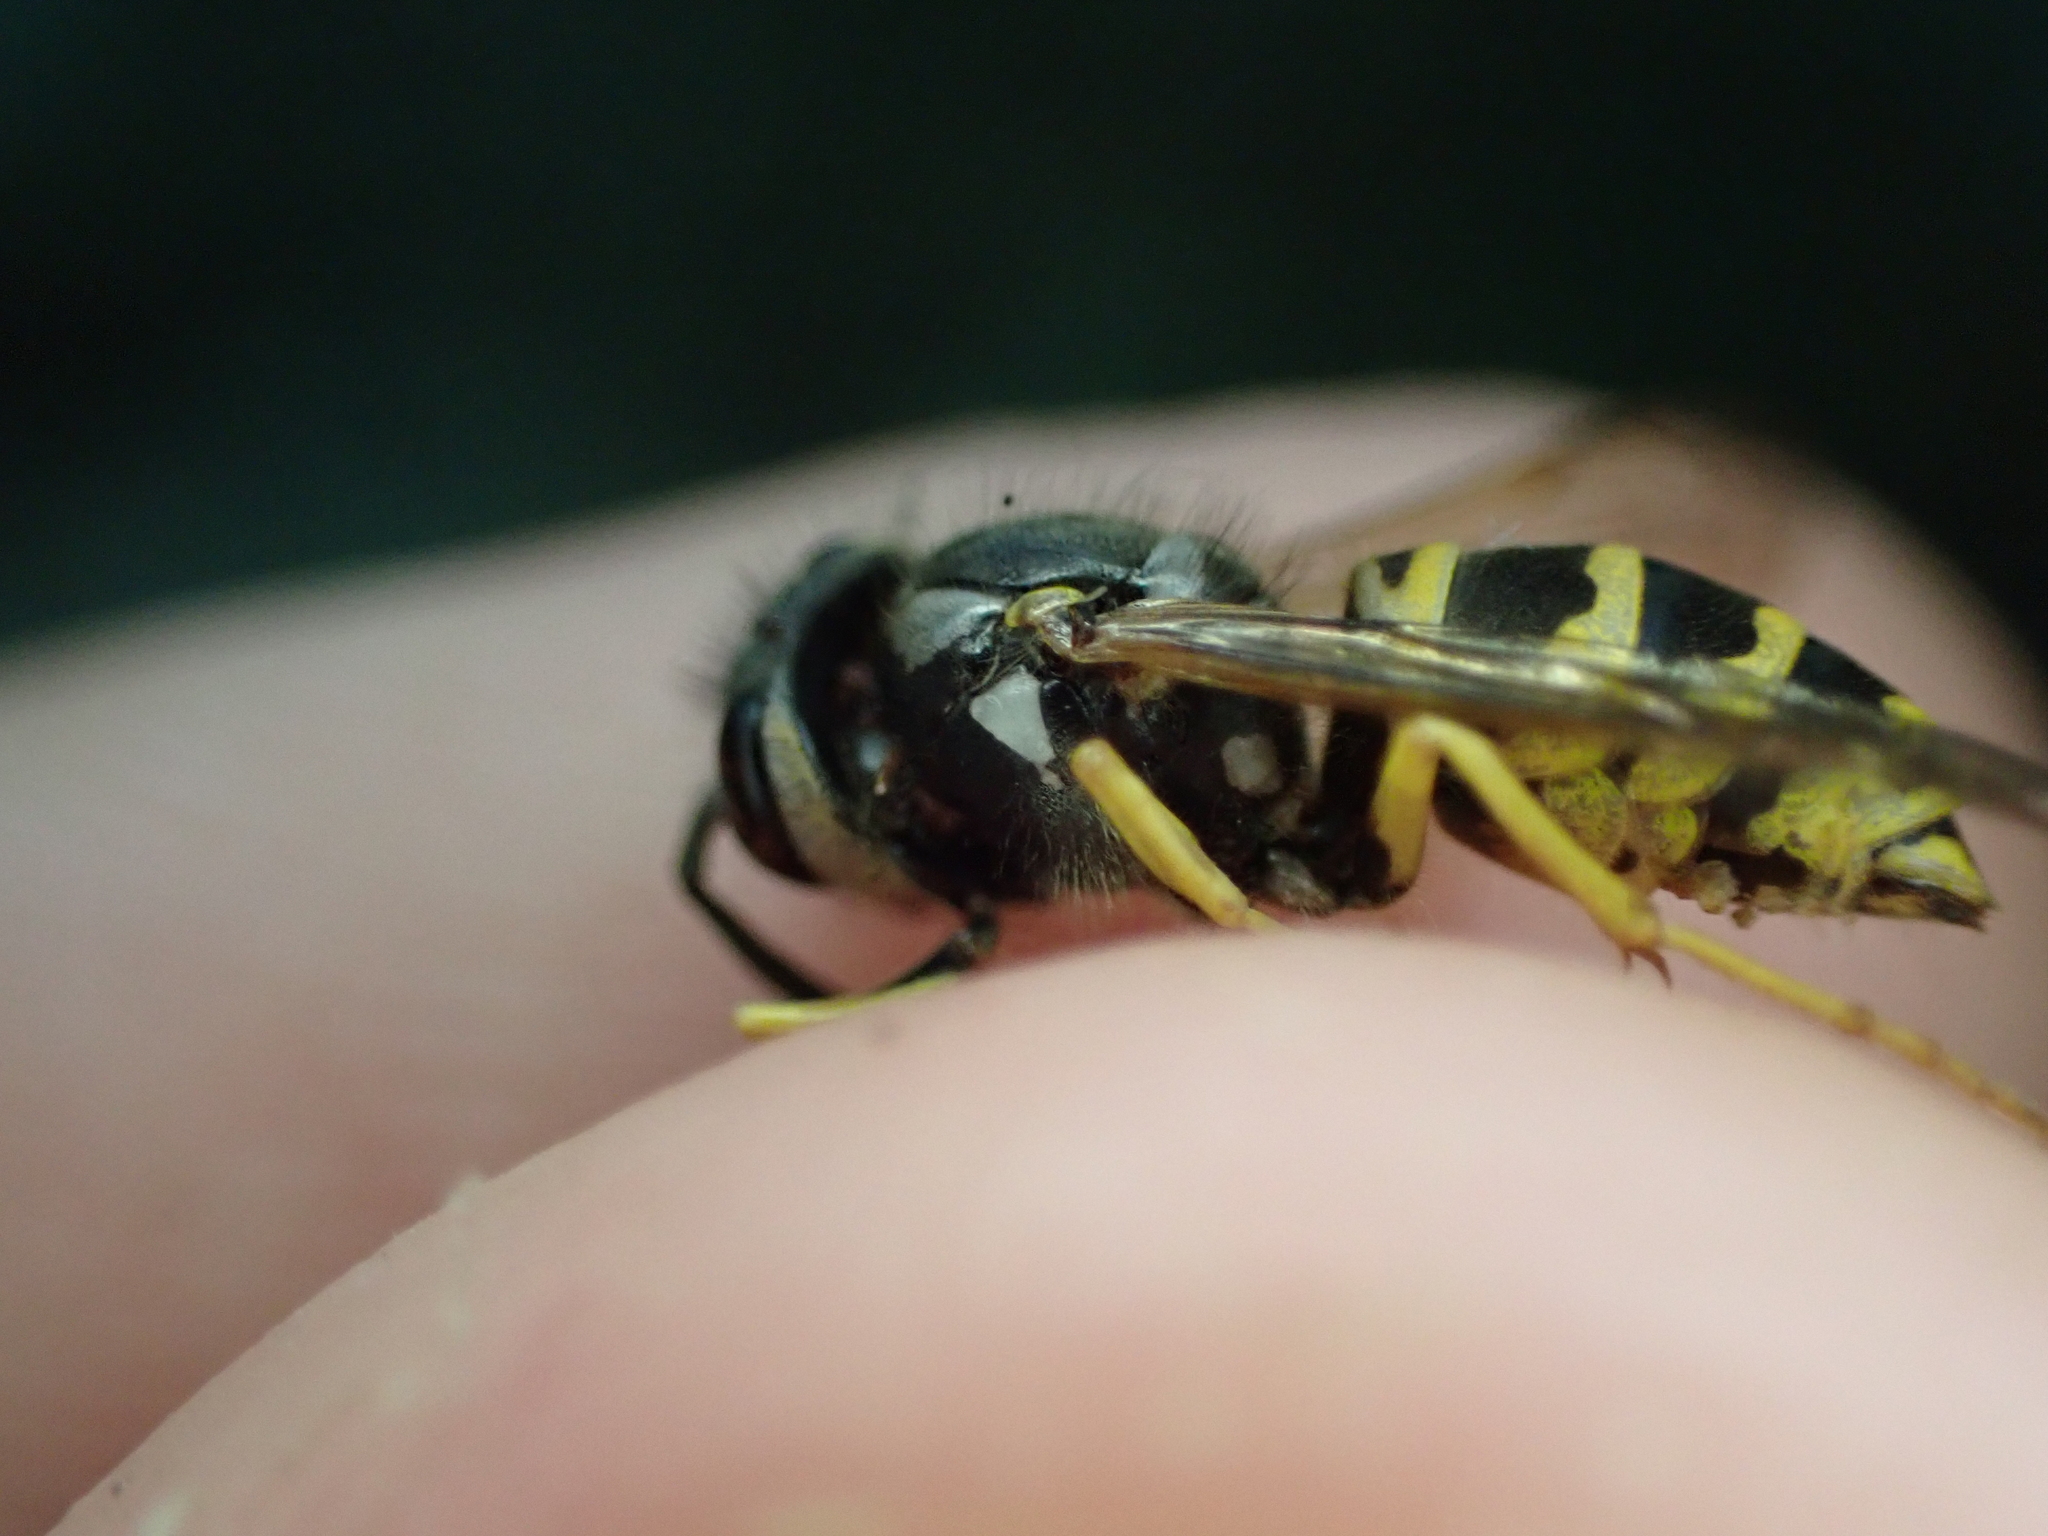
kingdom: Animalia
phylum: Arthropoda
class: Insecta
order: Hymenoptera
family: Vespidae
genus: Vespula
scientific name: Vespula maculifrons
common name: Eastern yellowjacket
